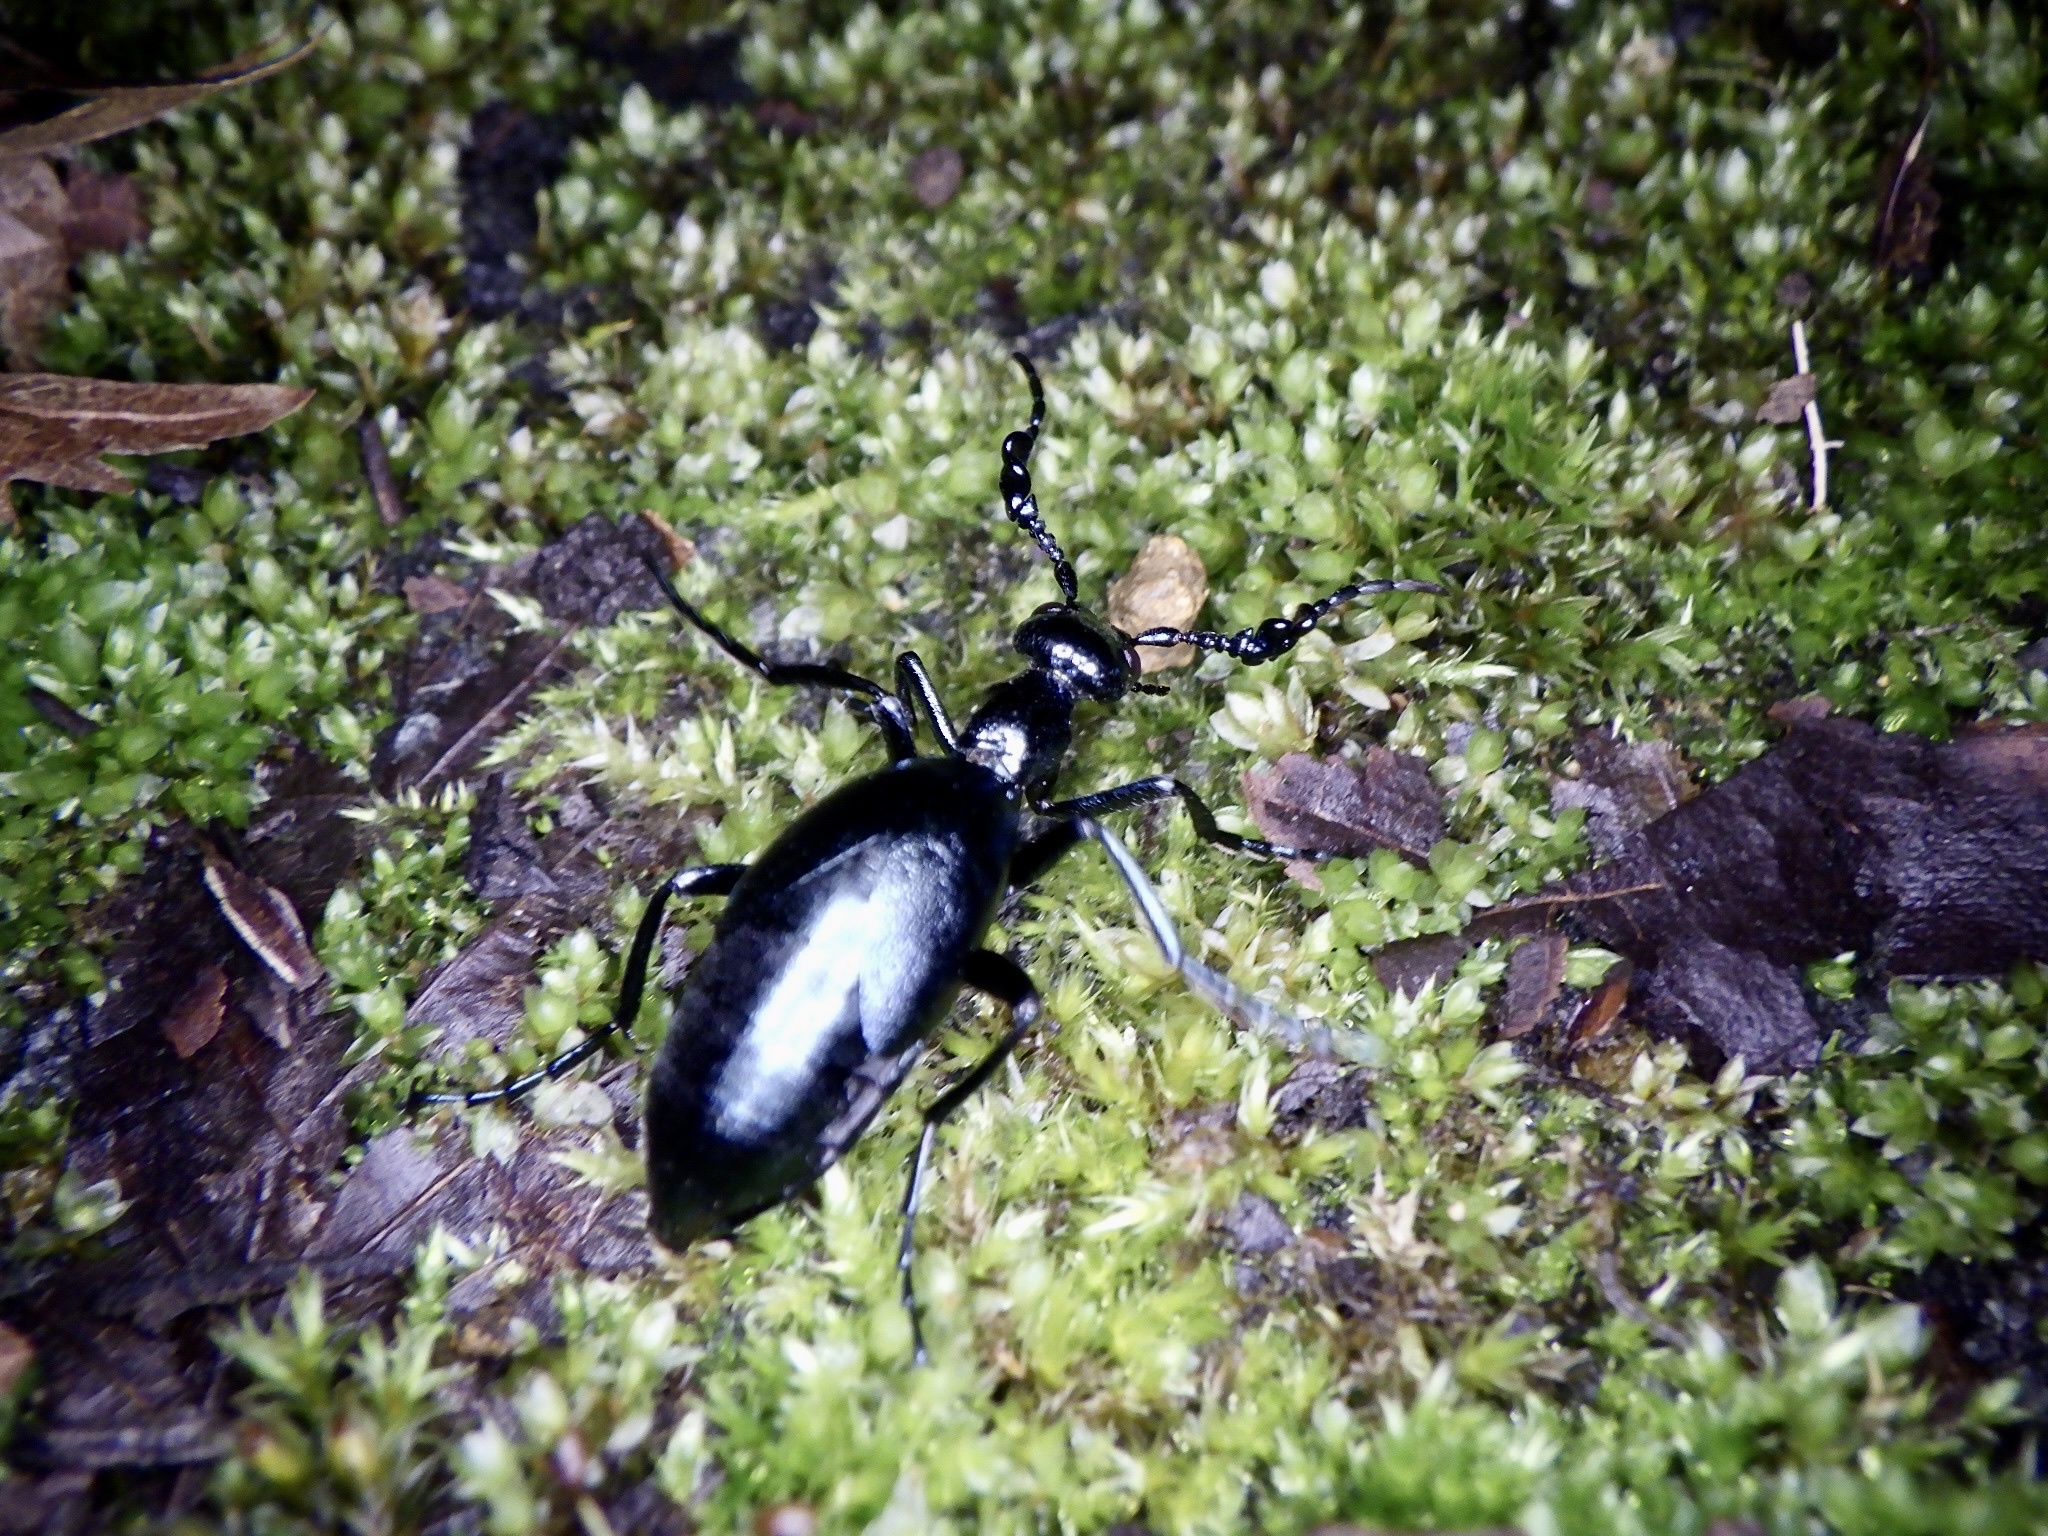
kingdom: Animalia
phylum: Arthropoda
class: Insecta
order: Coleoptera
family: Meloidae
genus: Meloe
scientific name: Meloe coarctatus
